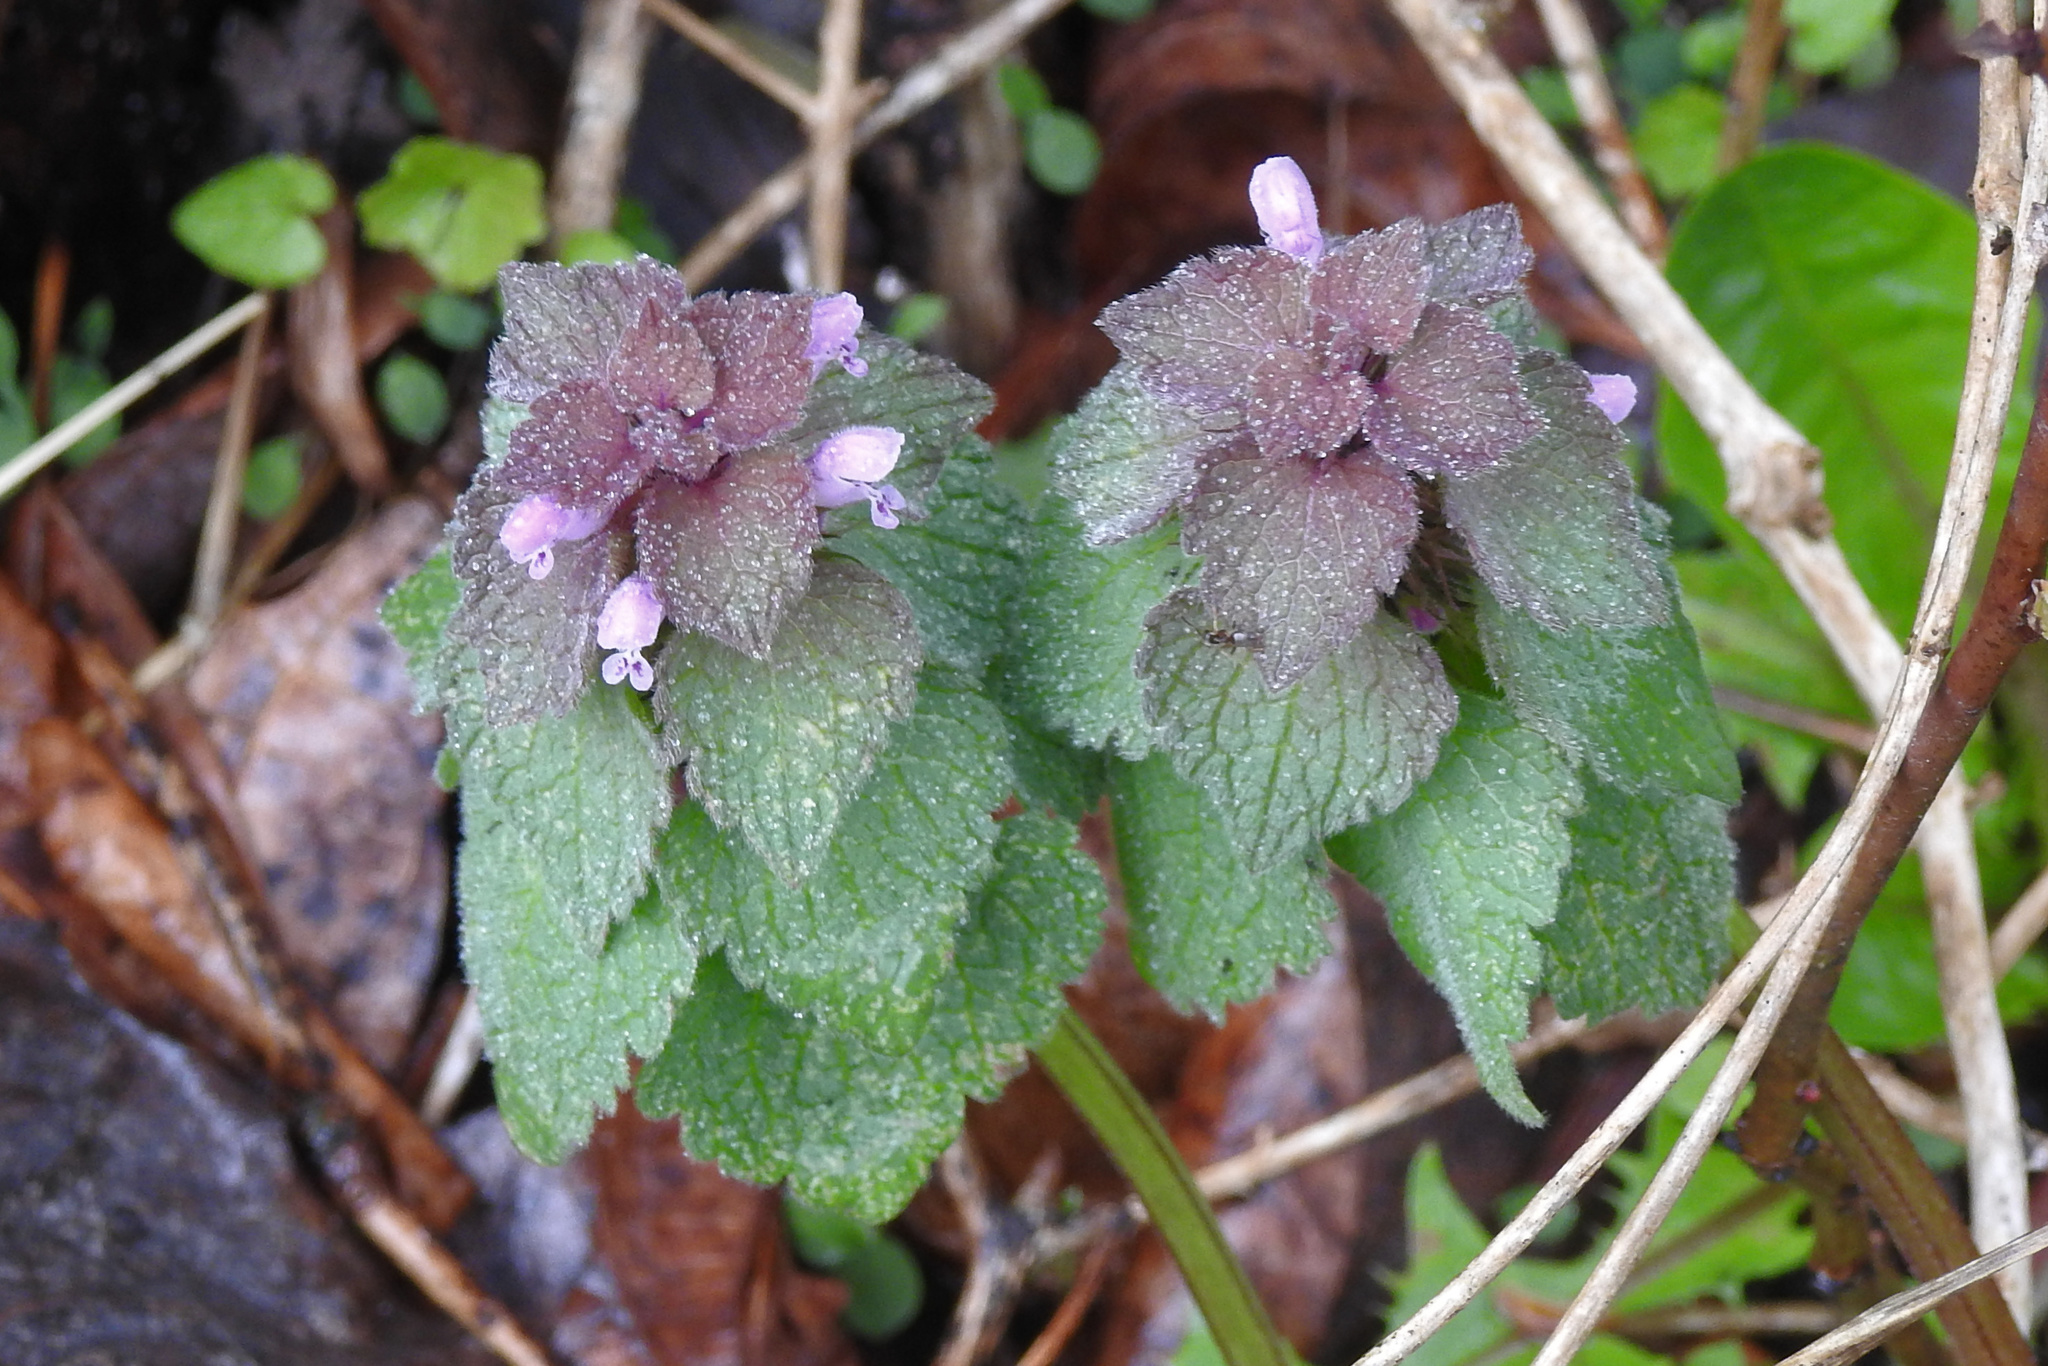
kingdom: Plantae
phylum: Tracheophyta
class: Magnoliopsida
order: Lamiales
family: Lamiaceae
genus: Lamium
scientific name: Lamium purpureum
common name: Red dead-nettle
